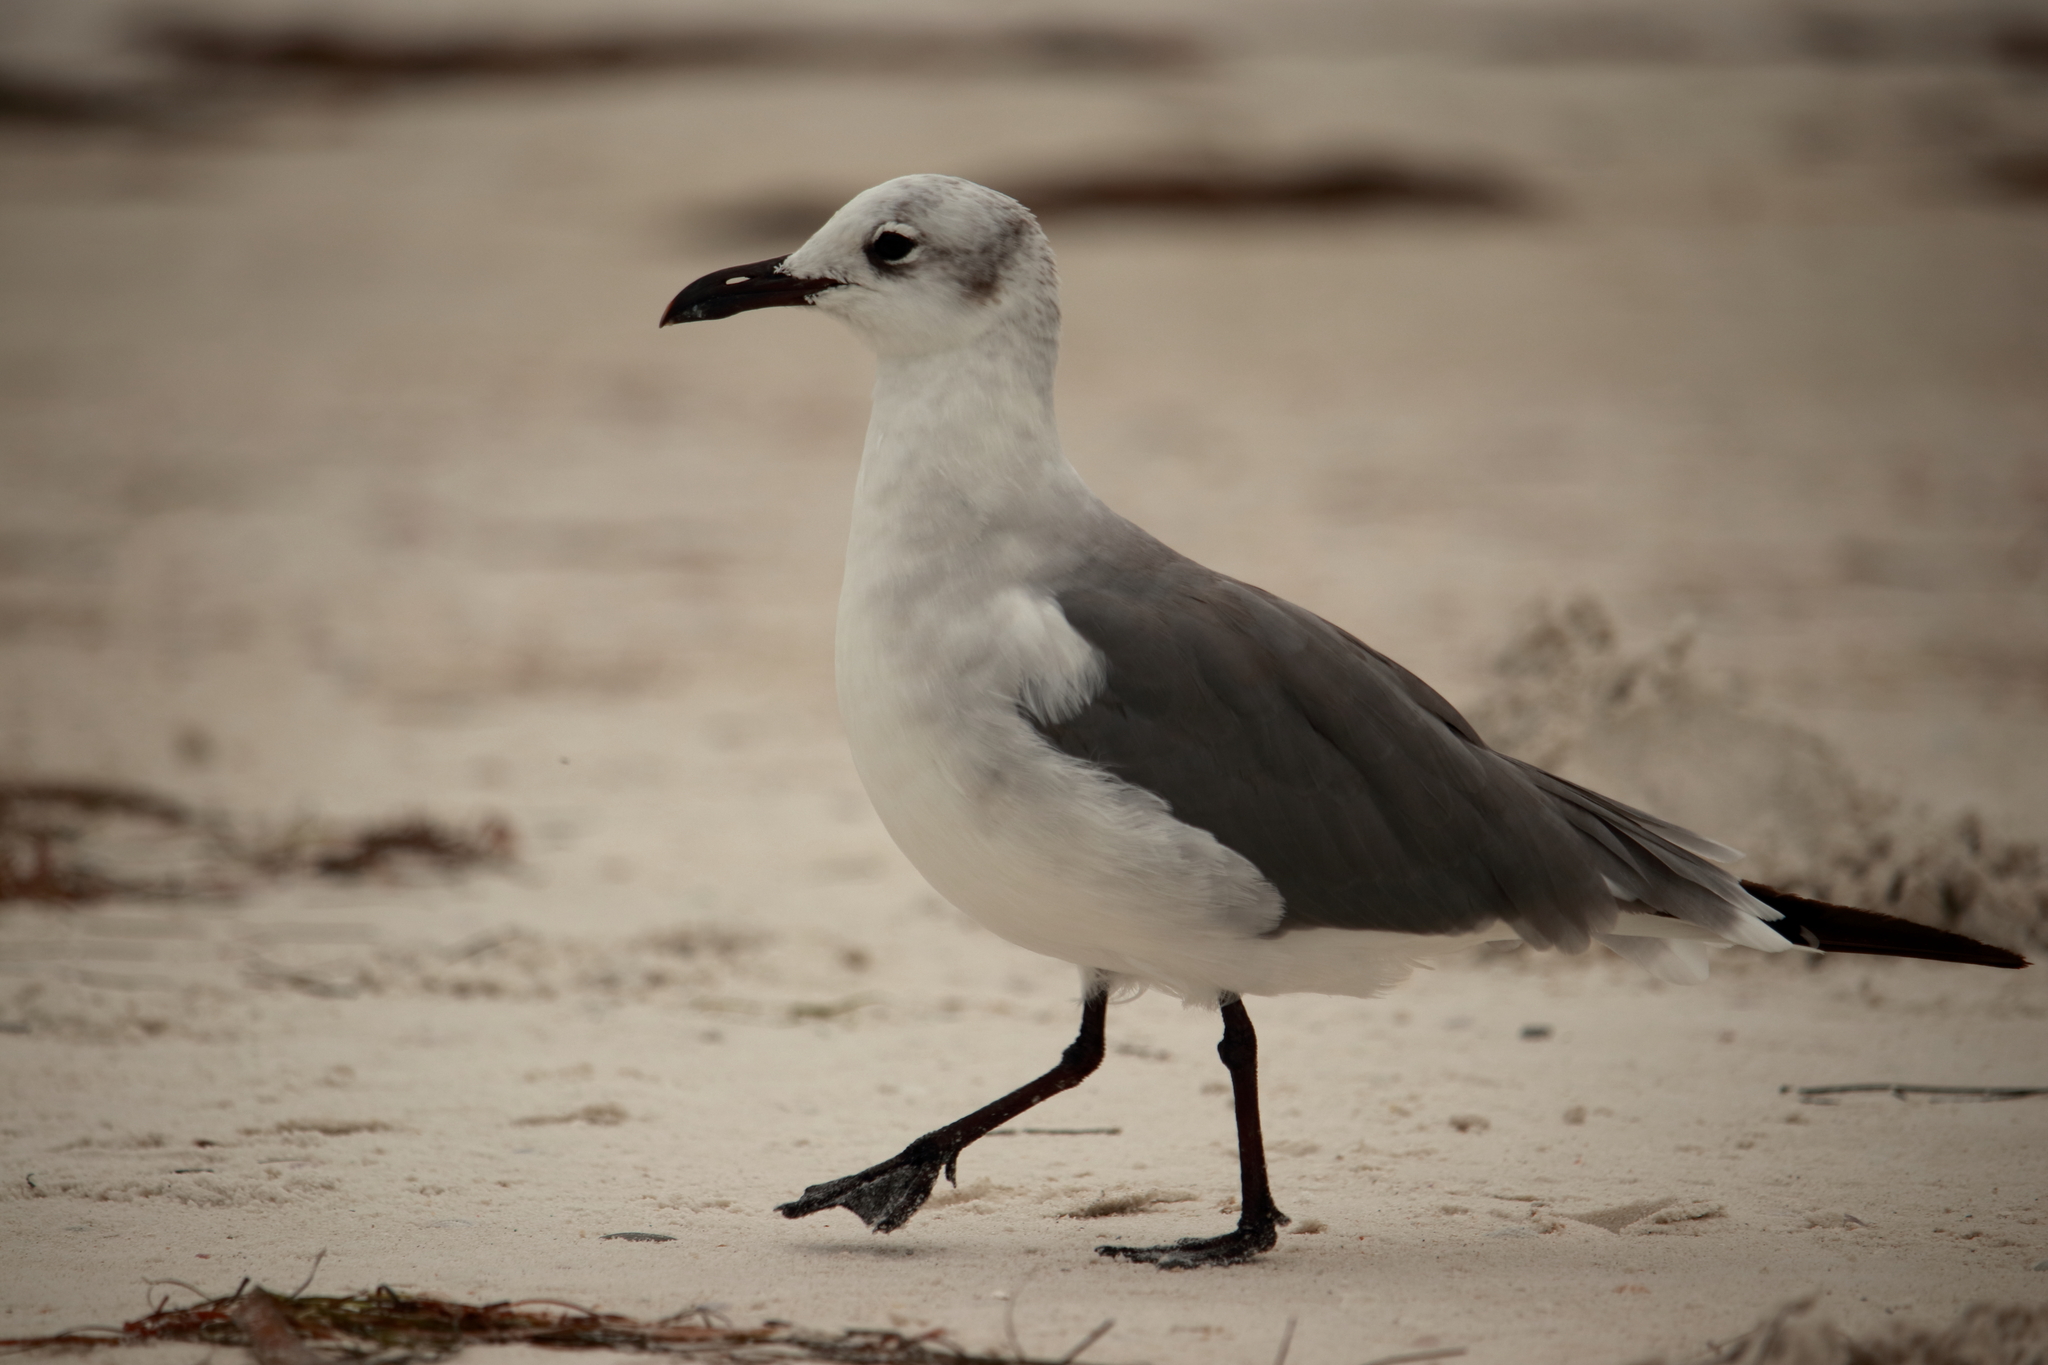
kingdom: Animalia
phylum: Chordata
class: Aves
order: Charadriiformes
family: Laridae
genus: Leucophaeus
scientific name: Leucophaeus atricilla
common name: Laughing gull
